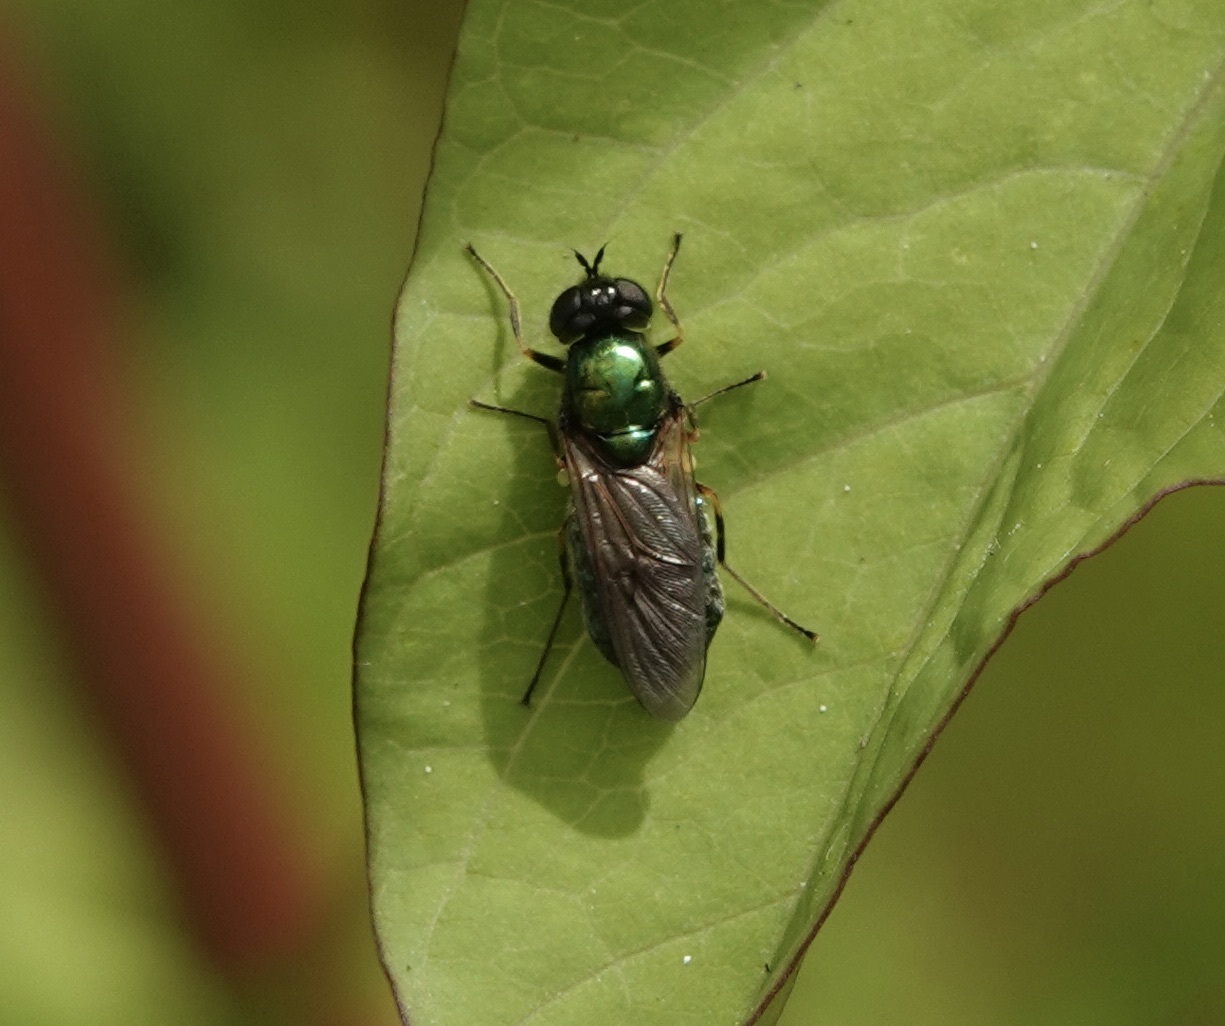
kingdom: Animalia
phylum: Arthropoda
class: Insecta
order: Diptera
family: Stratiomyidae
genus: Chloromyia
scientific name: Chloromyia formosa
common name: Soldier fly
